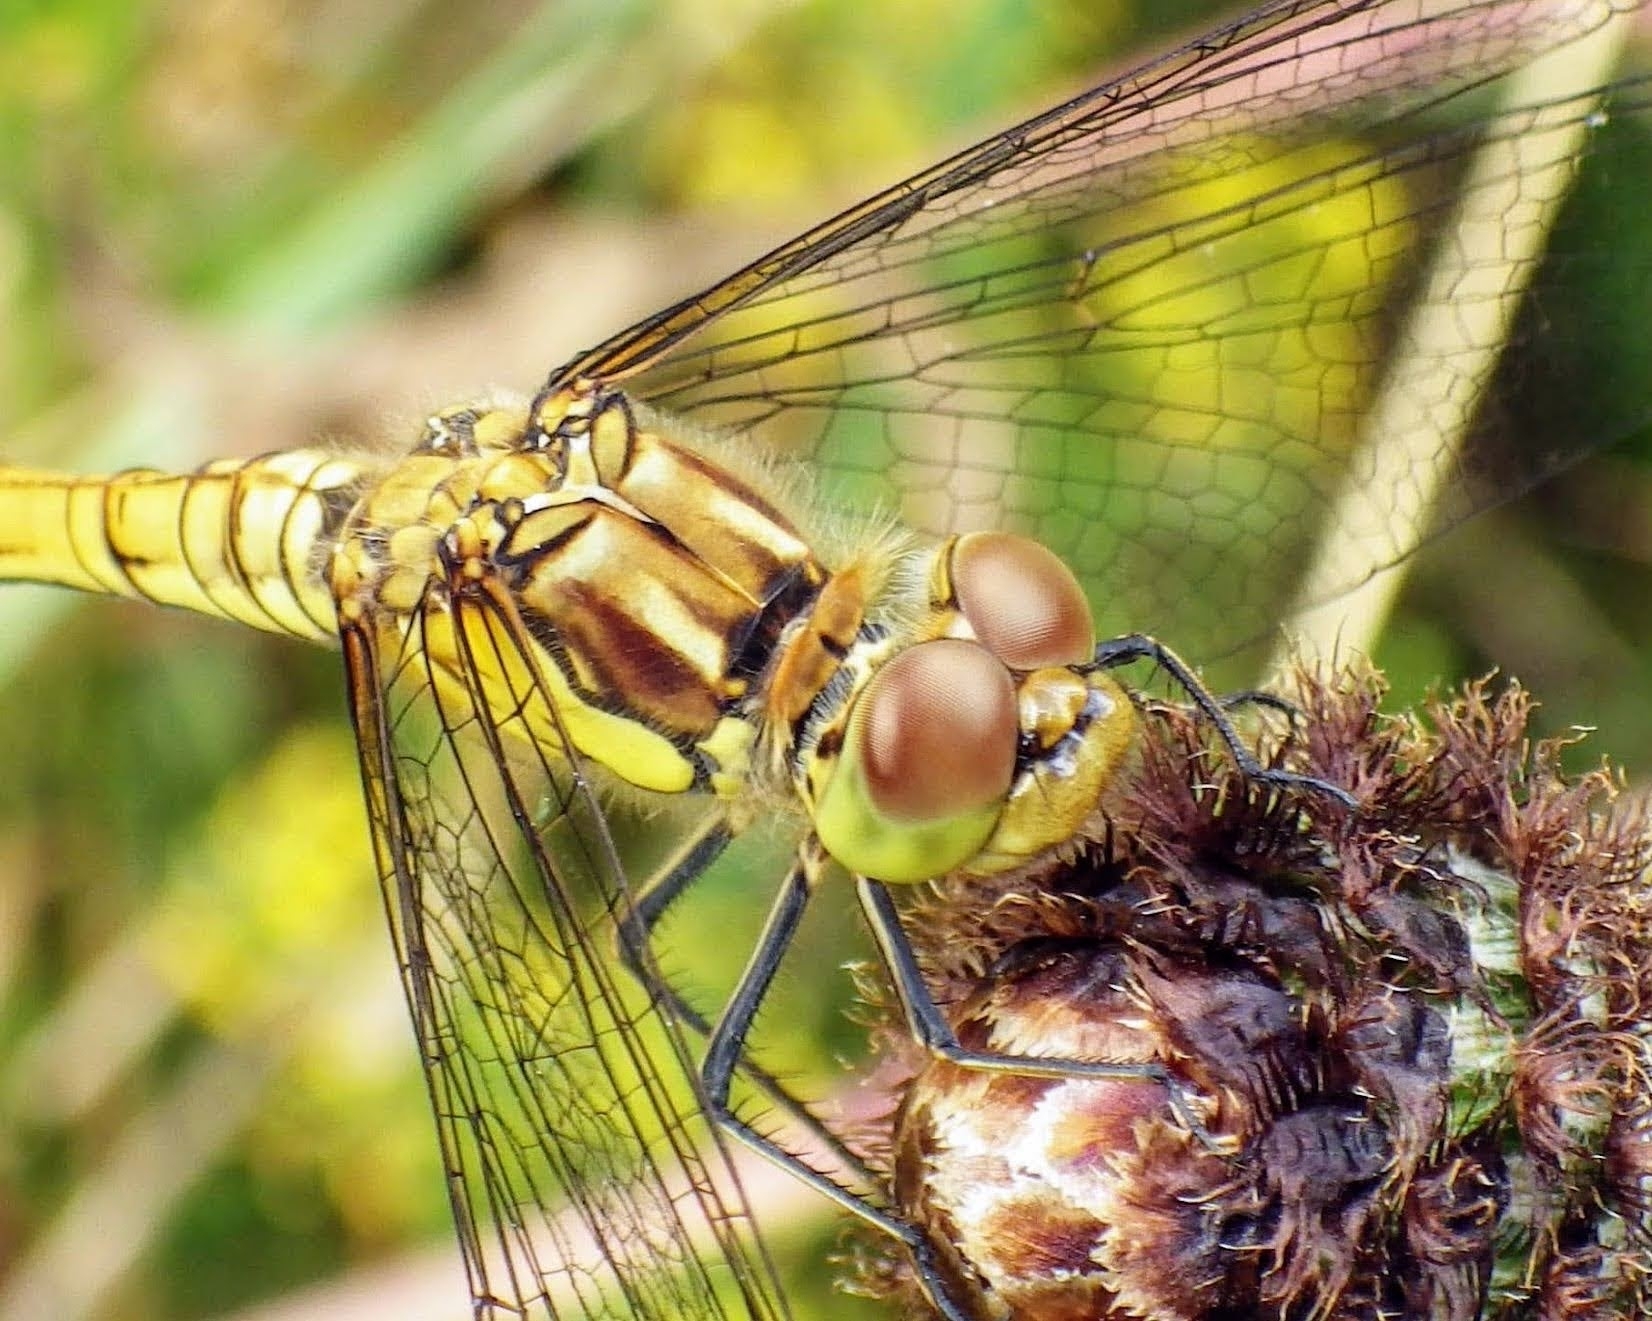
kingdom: Animalia
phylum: Arthropoda
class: Insecta
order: Odonata
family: Libellulidae
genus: Sympetrum
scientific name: Sympetrum striolatum
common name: Common darter
